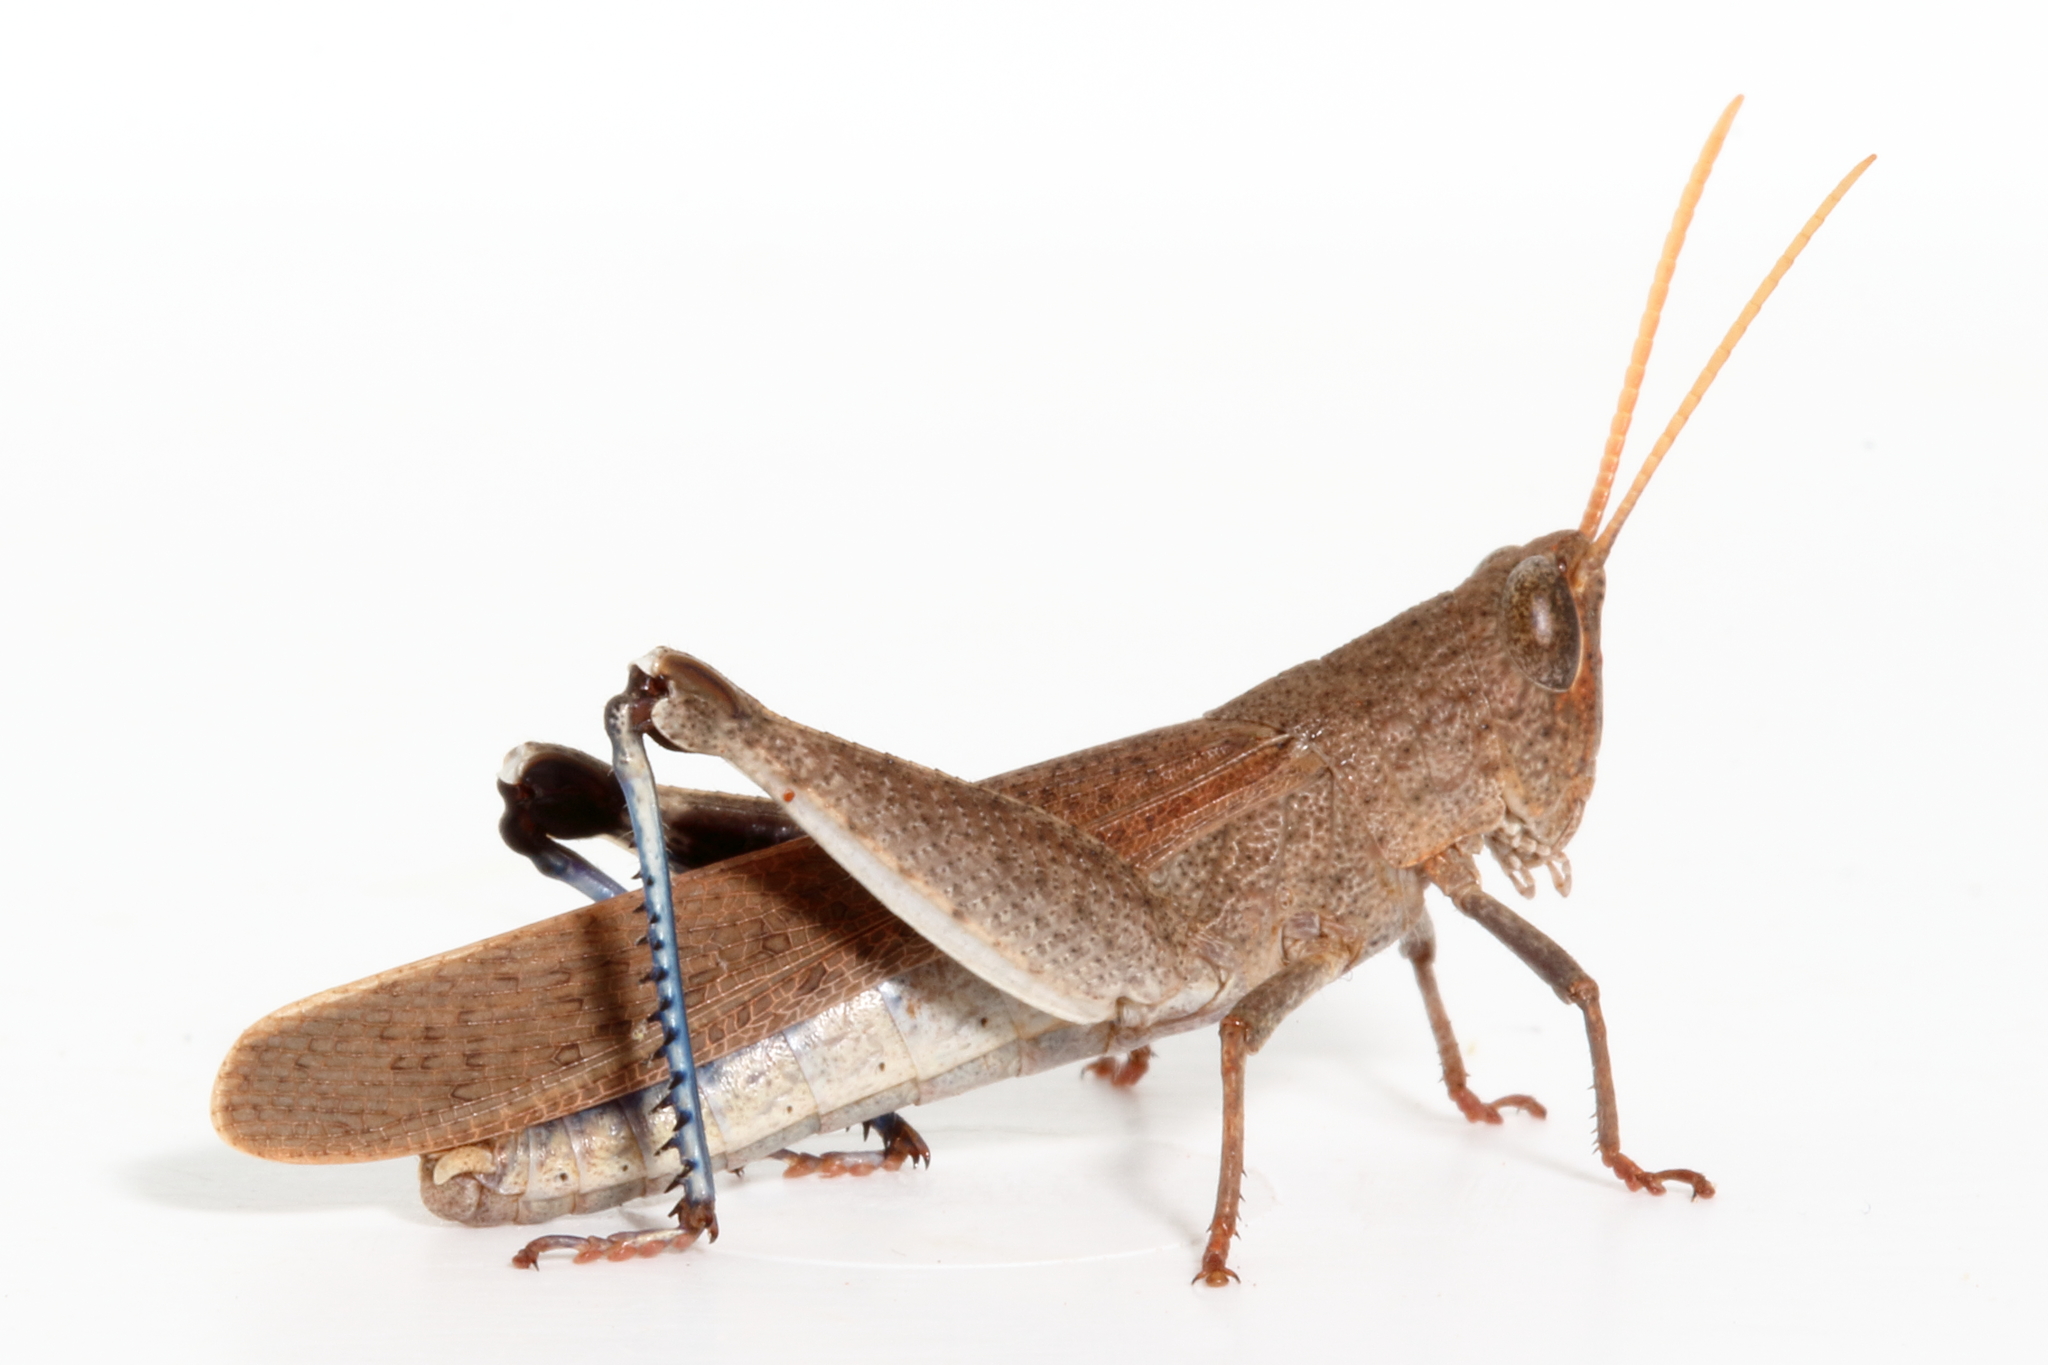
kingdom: Animalia
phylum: Arthropoda
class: Insecta
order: Orthoptera
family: Acrididae
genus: Goniaea
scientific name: Goniaea opomaloides
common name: Mimetic gumleaf grasshopper
